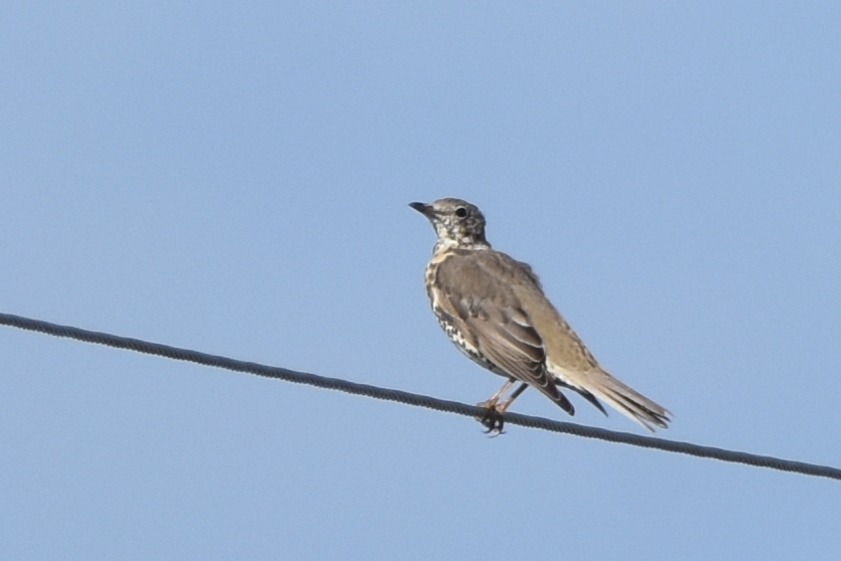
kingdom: Animalia
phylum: Chordata
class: Aves
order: Passeriformes
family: Turdidae
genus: Turdus
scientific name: Turdus viscivorus
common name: Mistle thrush
